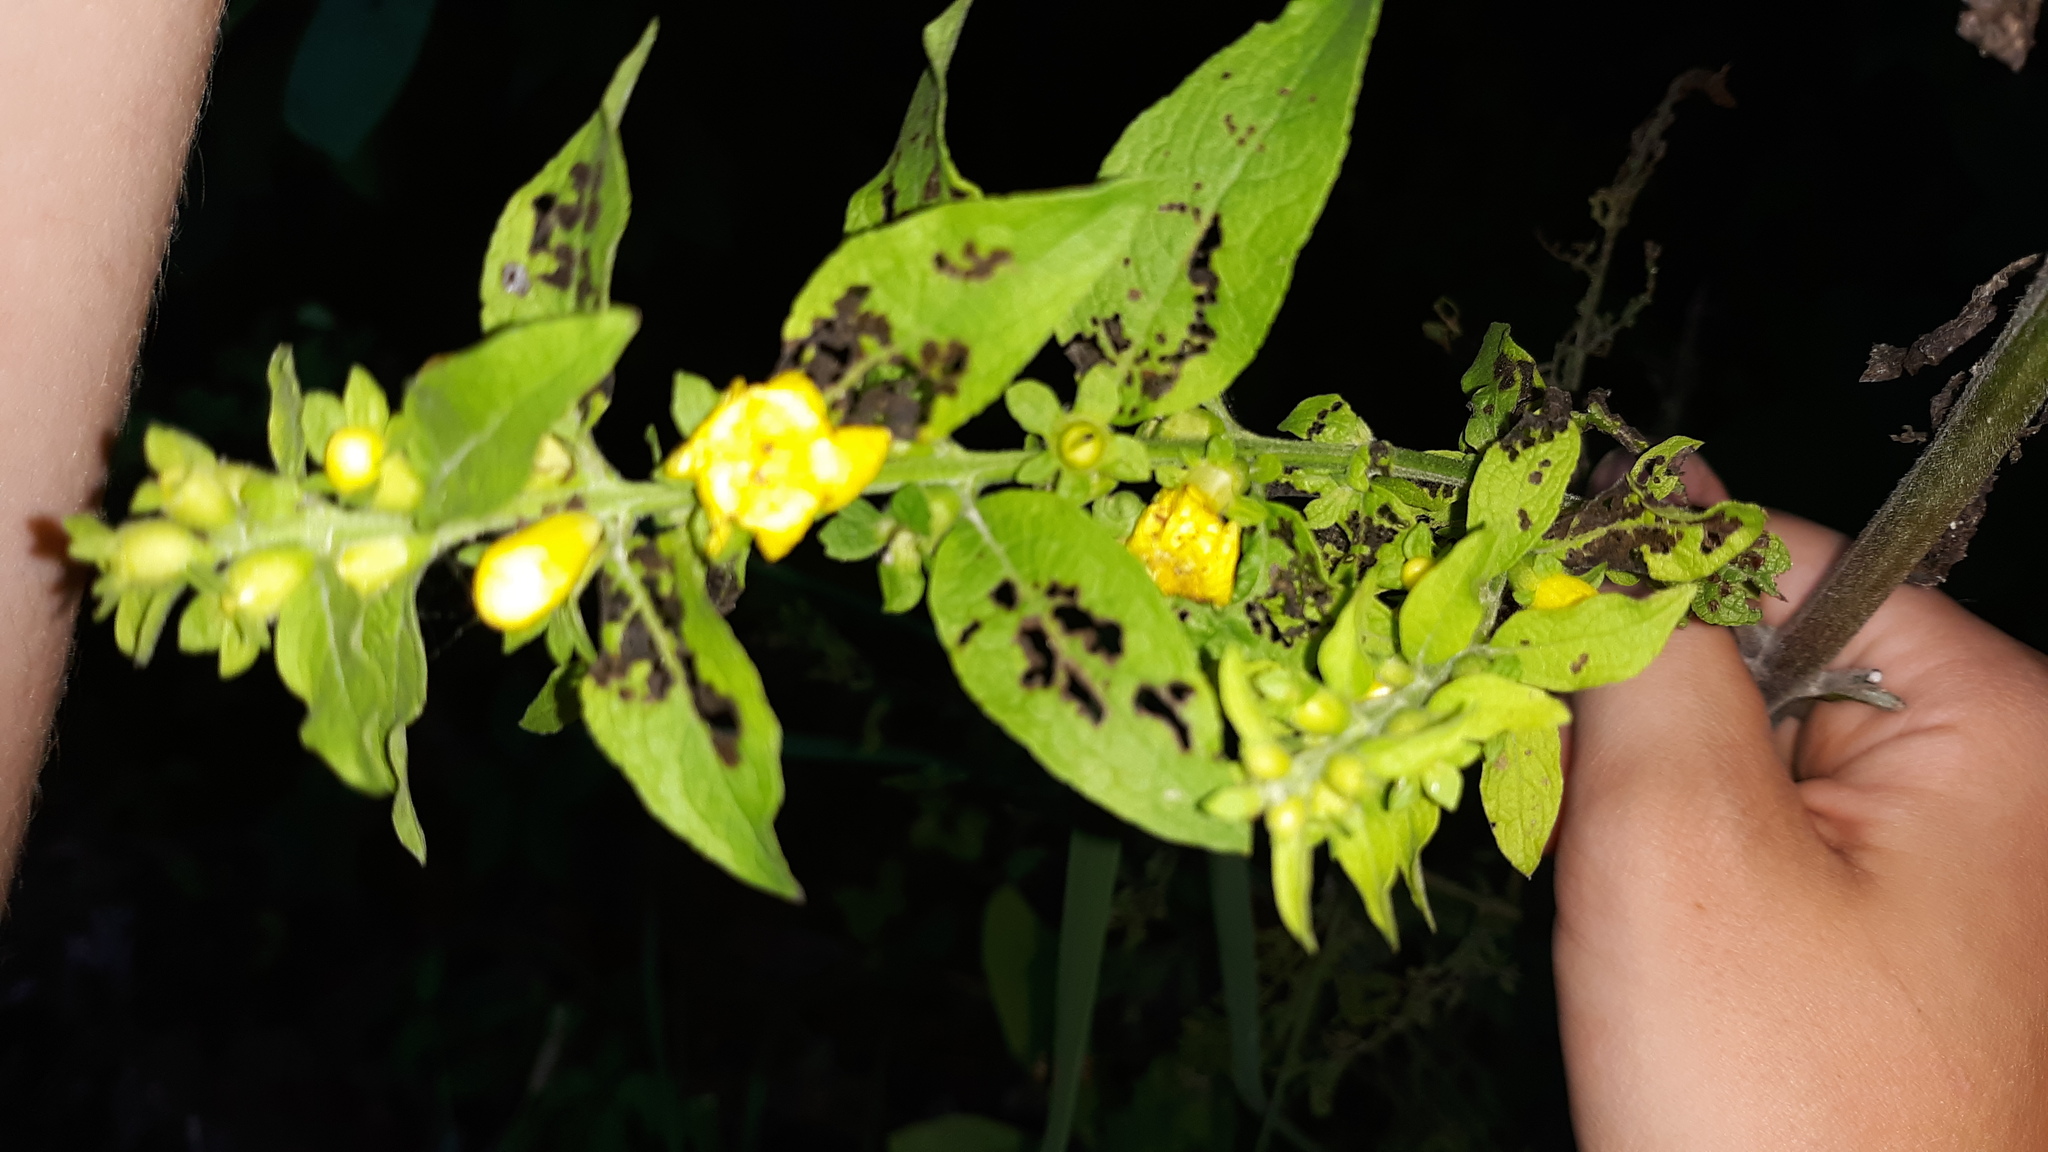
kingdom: Plantae
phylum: Tracheophyta
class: Magnoliopsida
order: Lamiales
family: Orobanchaceae
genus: Dasistoma
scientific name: Dasistoma macrophyllum
